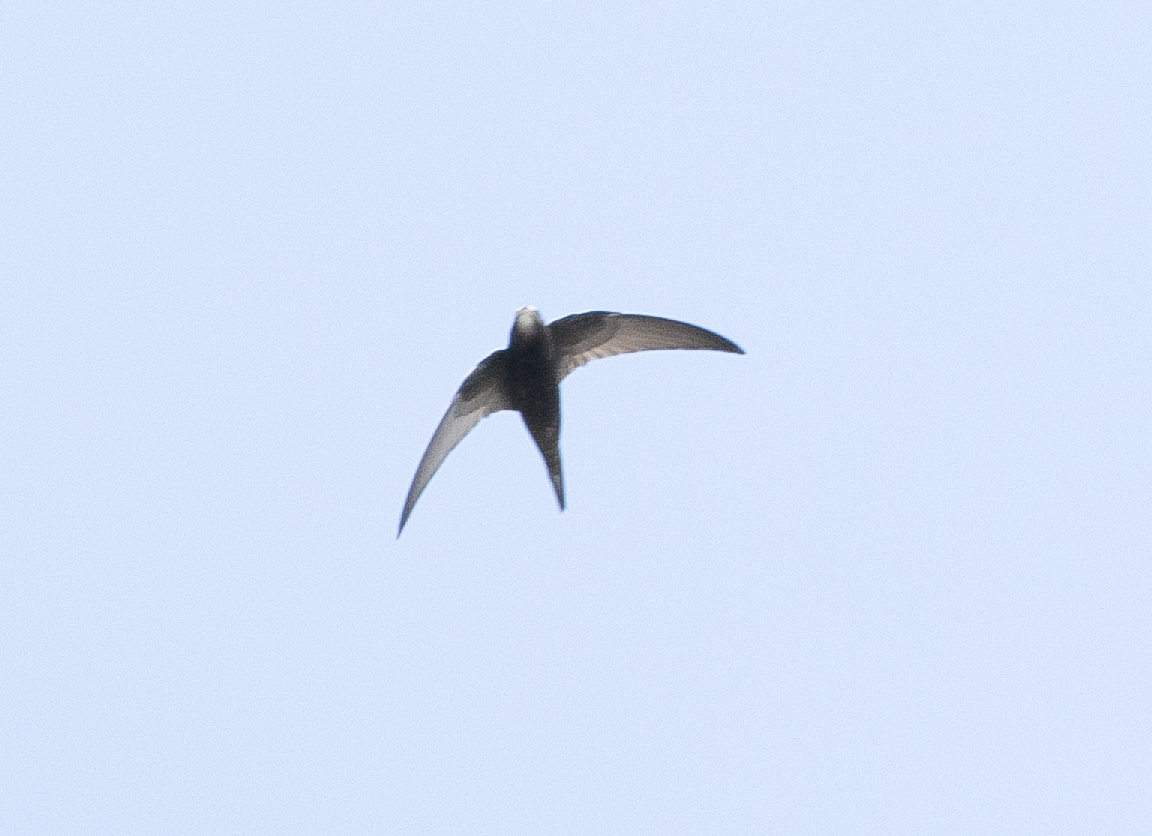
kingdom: Animalia
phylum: Chordata
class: Aves
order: Apodiformes
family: Apodidae
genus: Apus
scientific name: Apus apus
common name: Common swift
